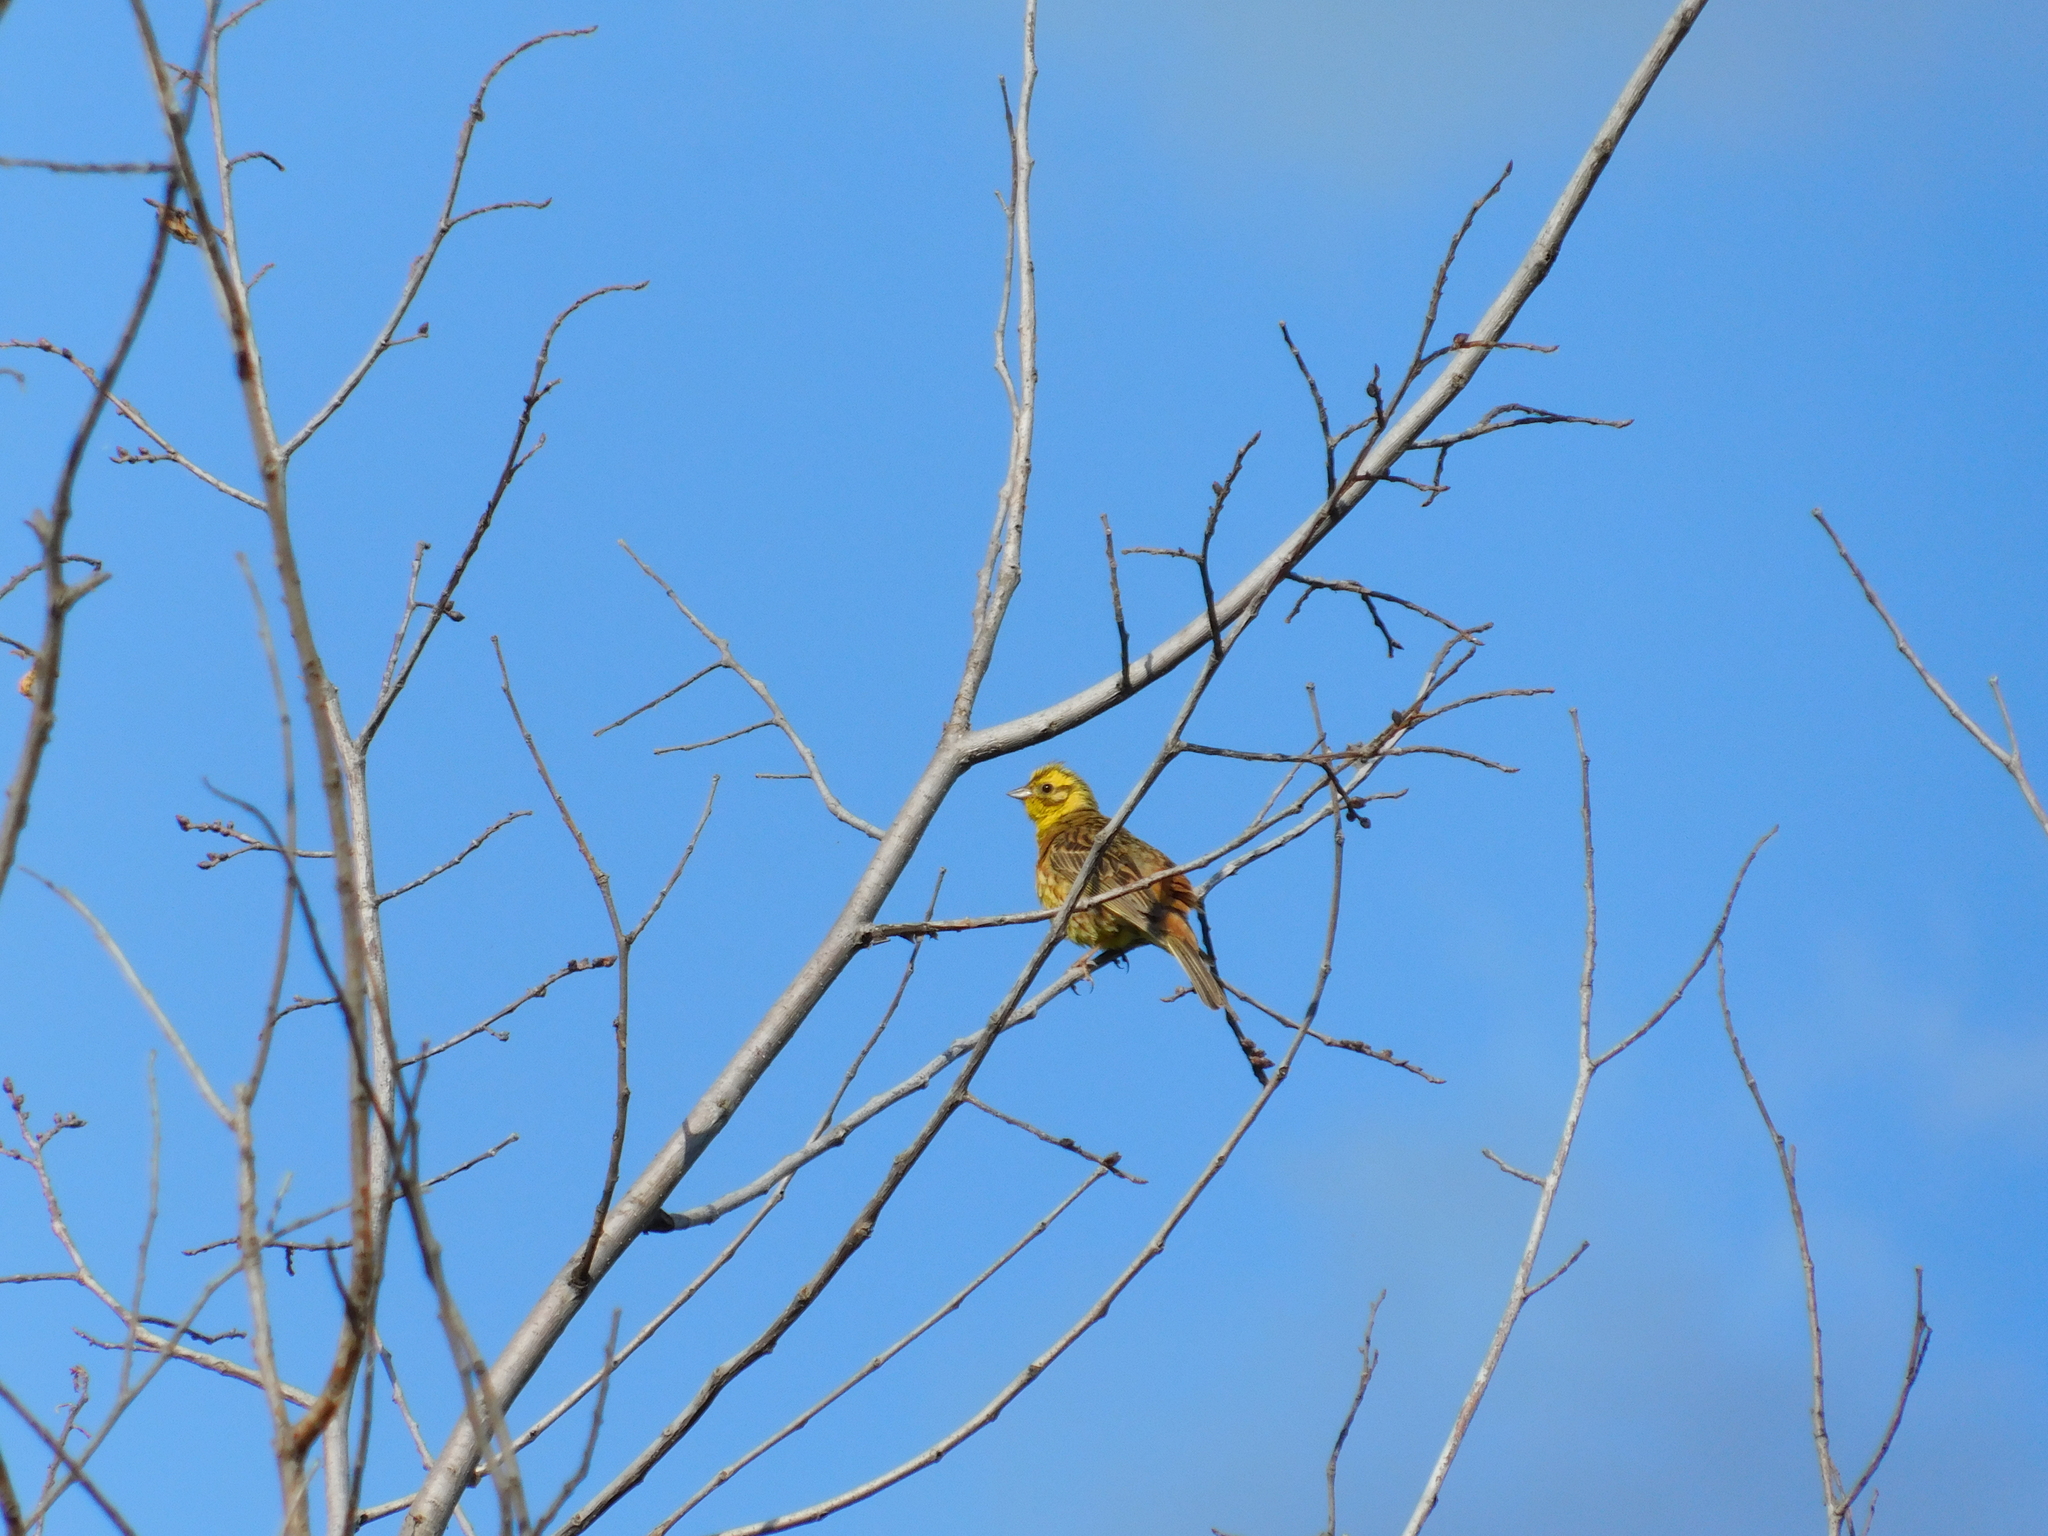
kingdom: Animalia
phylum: Chordata
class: Aves
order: Passeriformes
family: Emberizidae
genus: Emberiza
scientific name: Emberiza citrinella
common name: Yellowhammer
